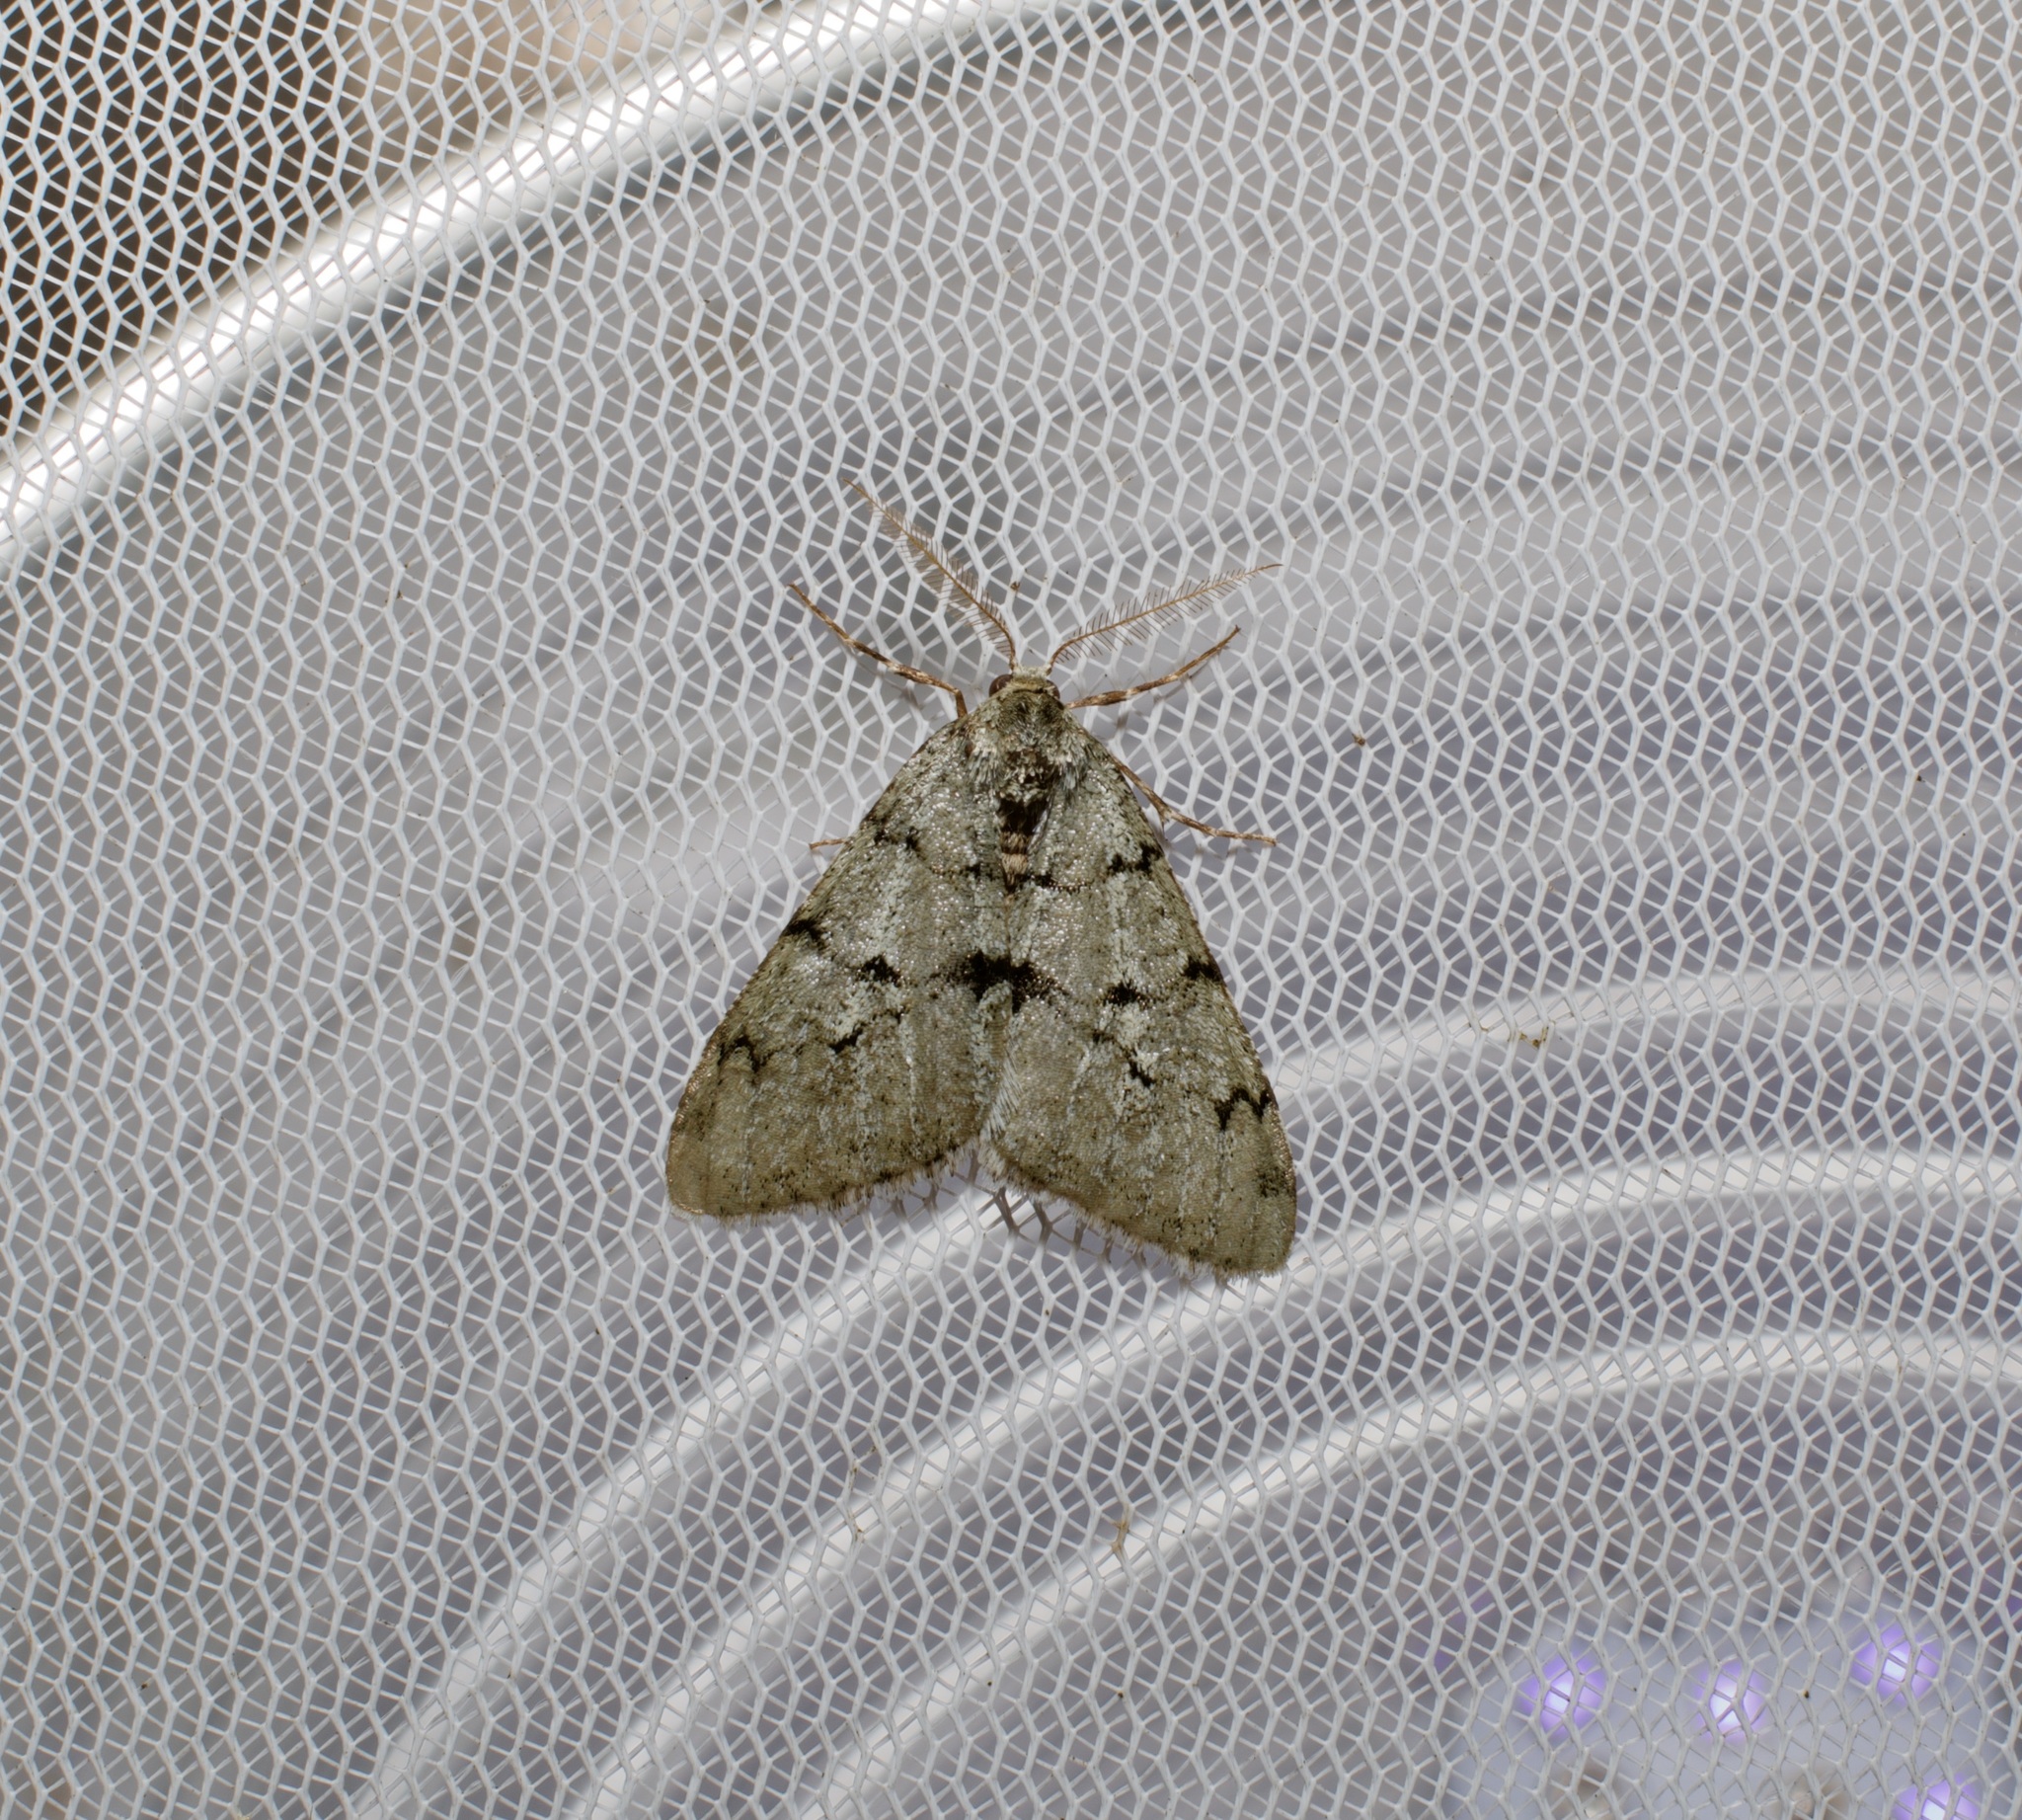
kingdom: Animalia
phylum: Arthropoda
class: Insecta
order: Lepidoptera
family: Geometridae
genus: Phigalia
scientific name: Phigalia strigataria
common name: Small phigalia
